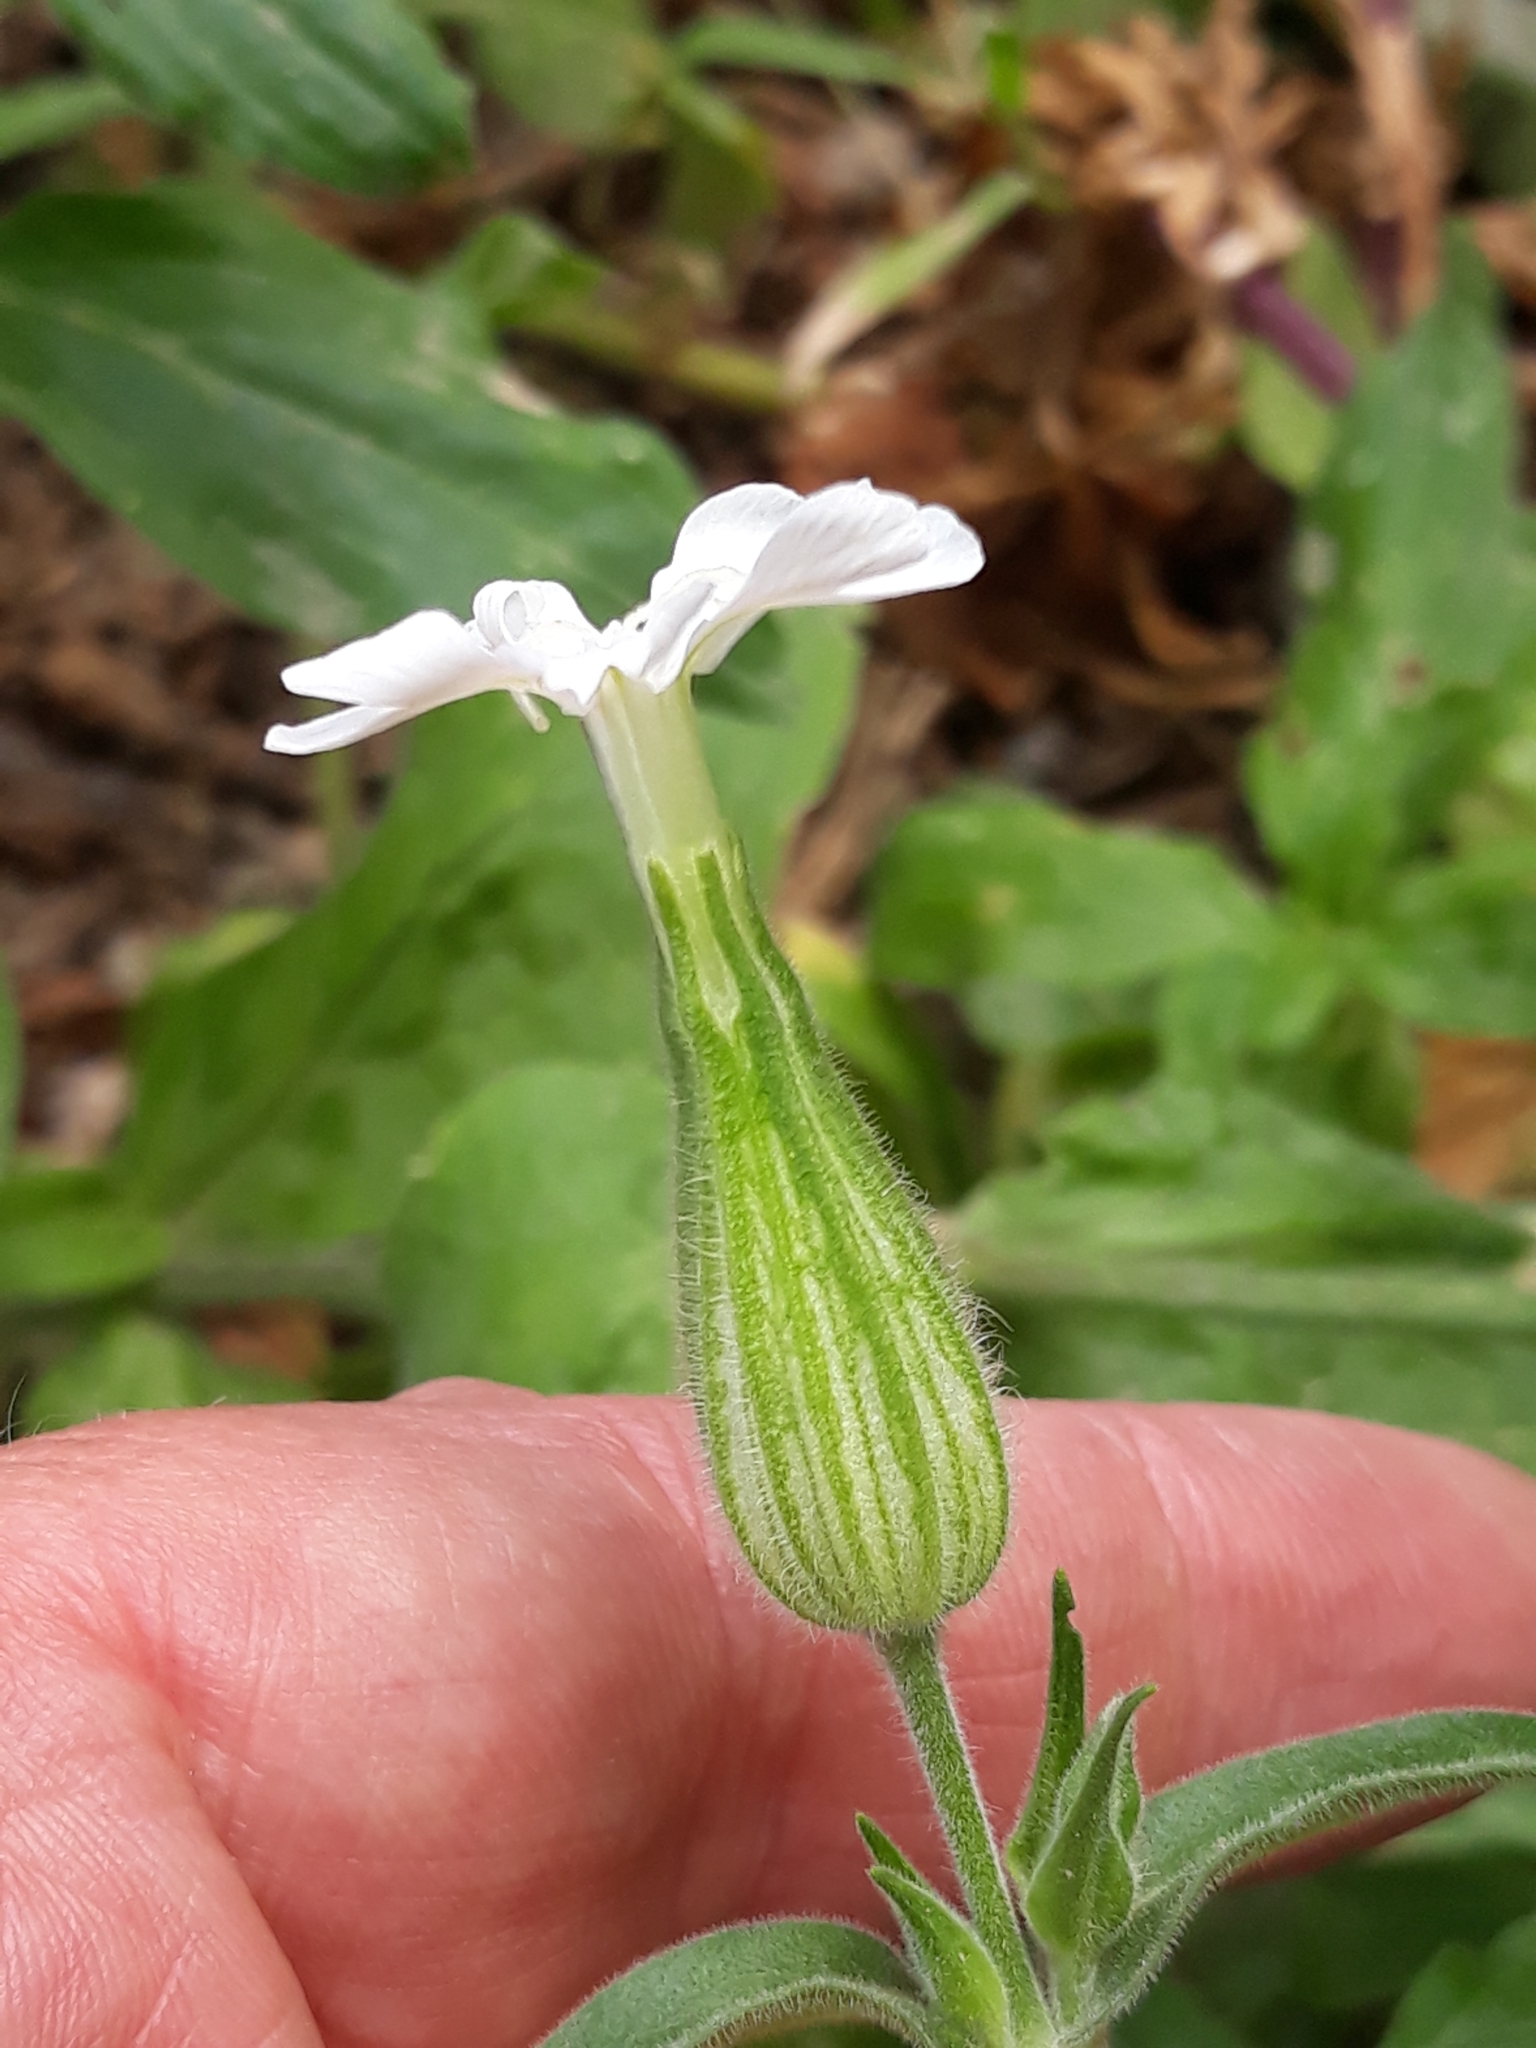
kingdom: Plantae
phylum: Tracheophyta
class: Magnoliopsida
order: Caryophyllales
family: Caryophyllaceae
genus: Silene
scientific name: Silene latifolia
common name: White campion
